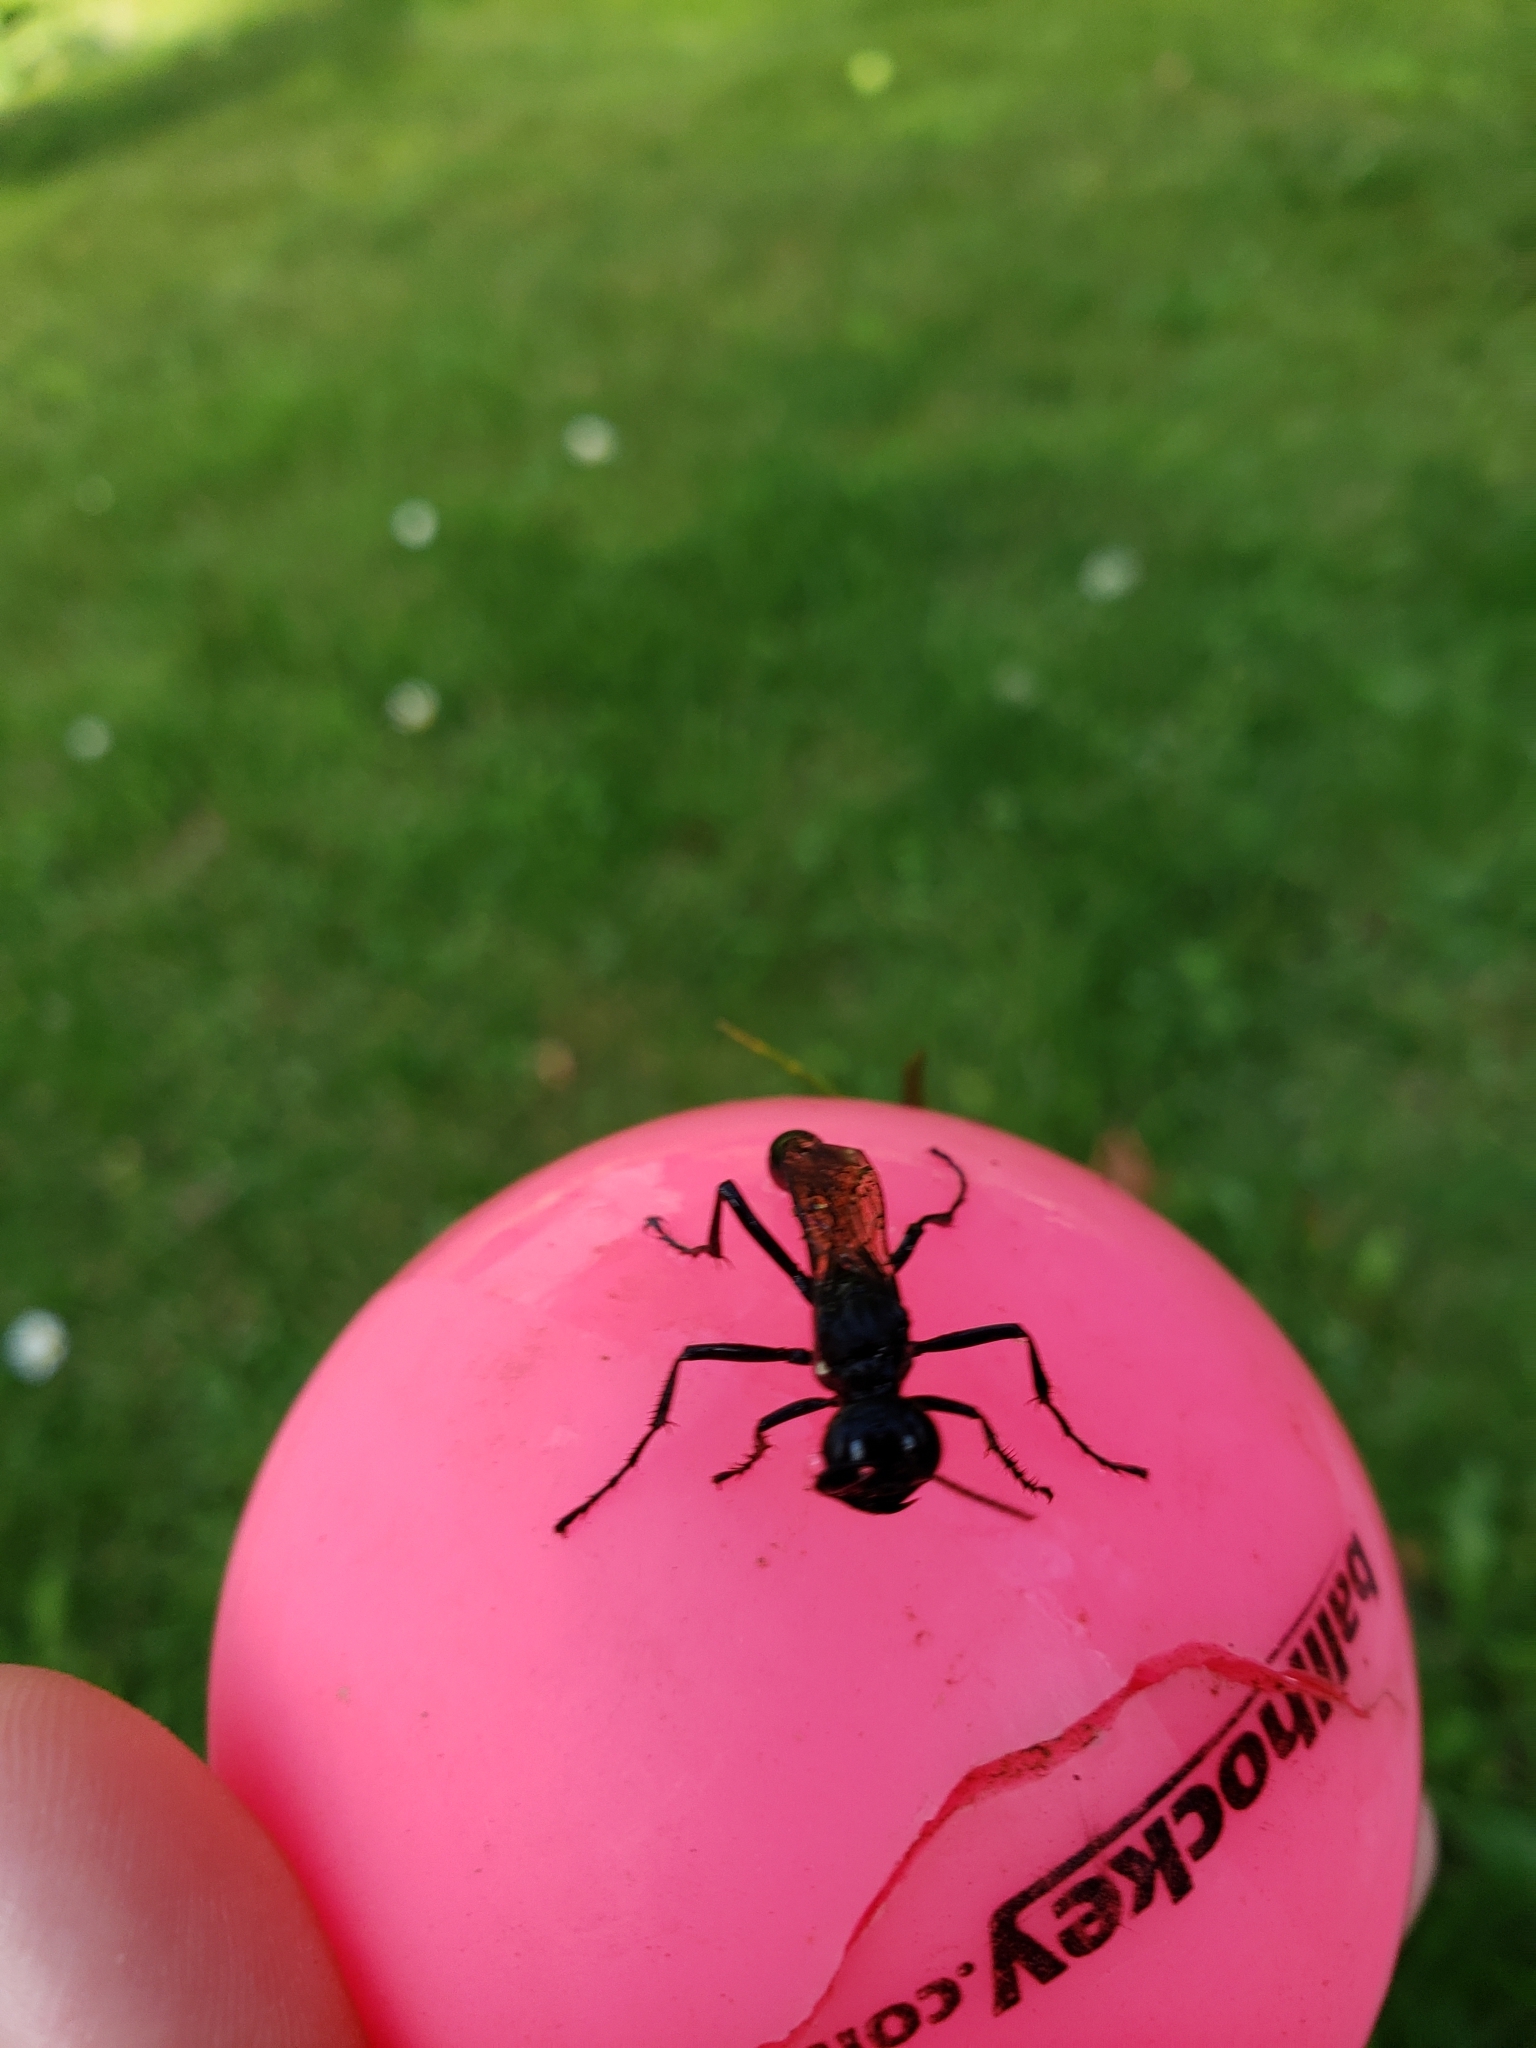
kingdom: Animalia
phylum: Arthropoda
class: Insecta
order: Hymenoptera
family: Sphecidae
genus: Eremnophila
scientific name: Eremnophila aureonotata
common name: Gold-marked thread-waisted wasp
